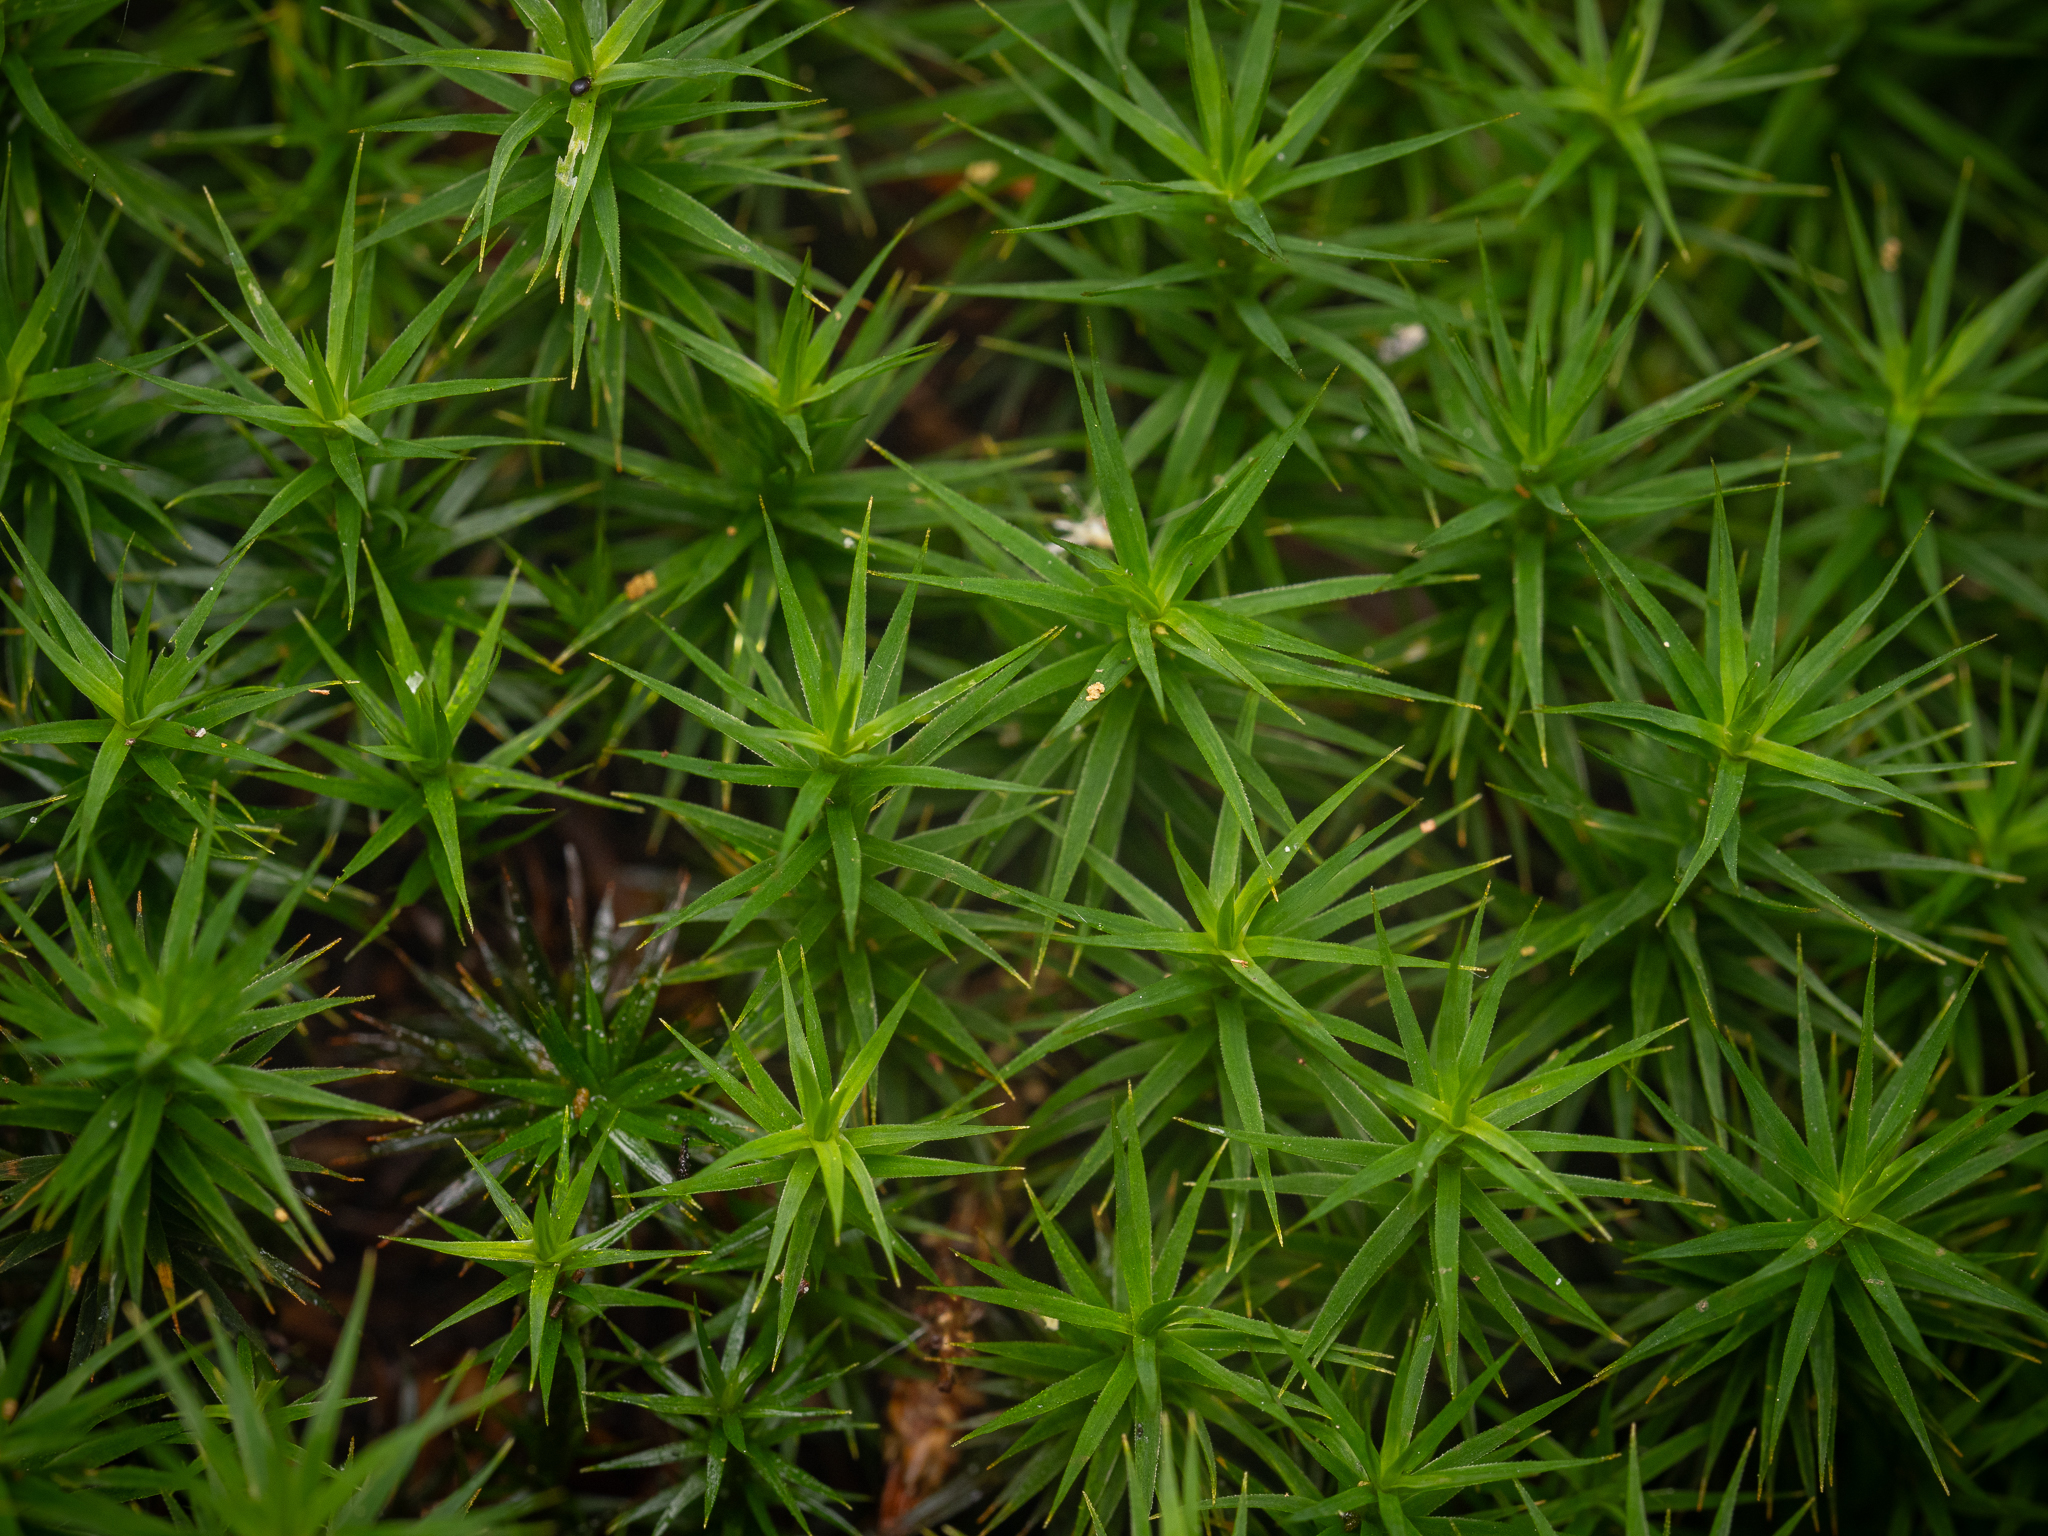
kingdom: Plantae
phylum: Bryophyta
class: Polytrichopsida
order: Polytrichales
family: Polytrichaceae
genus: Polytrichum
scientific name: Polytrichum formosum
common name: Bank haircap moss
